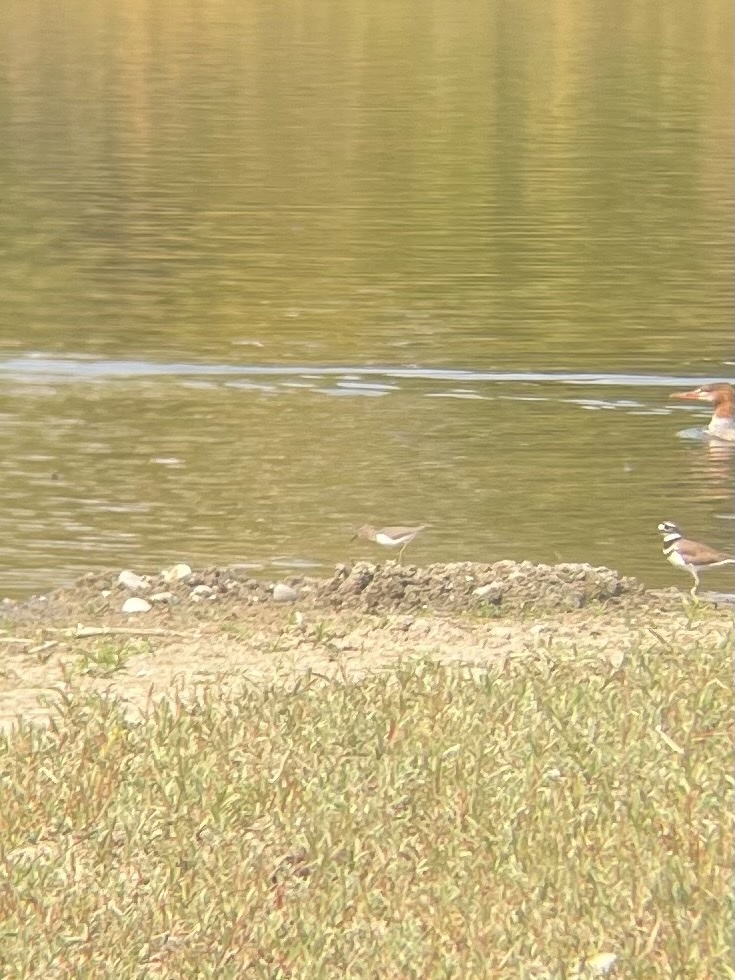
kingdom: Animalia
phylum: Chordata
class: Aves
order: Charadriiformes
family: Scolopacidae
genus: Actitis
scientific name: Actitis macularius
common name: Spotted sandpiper
